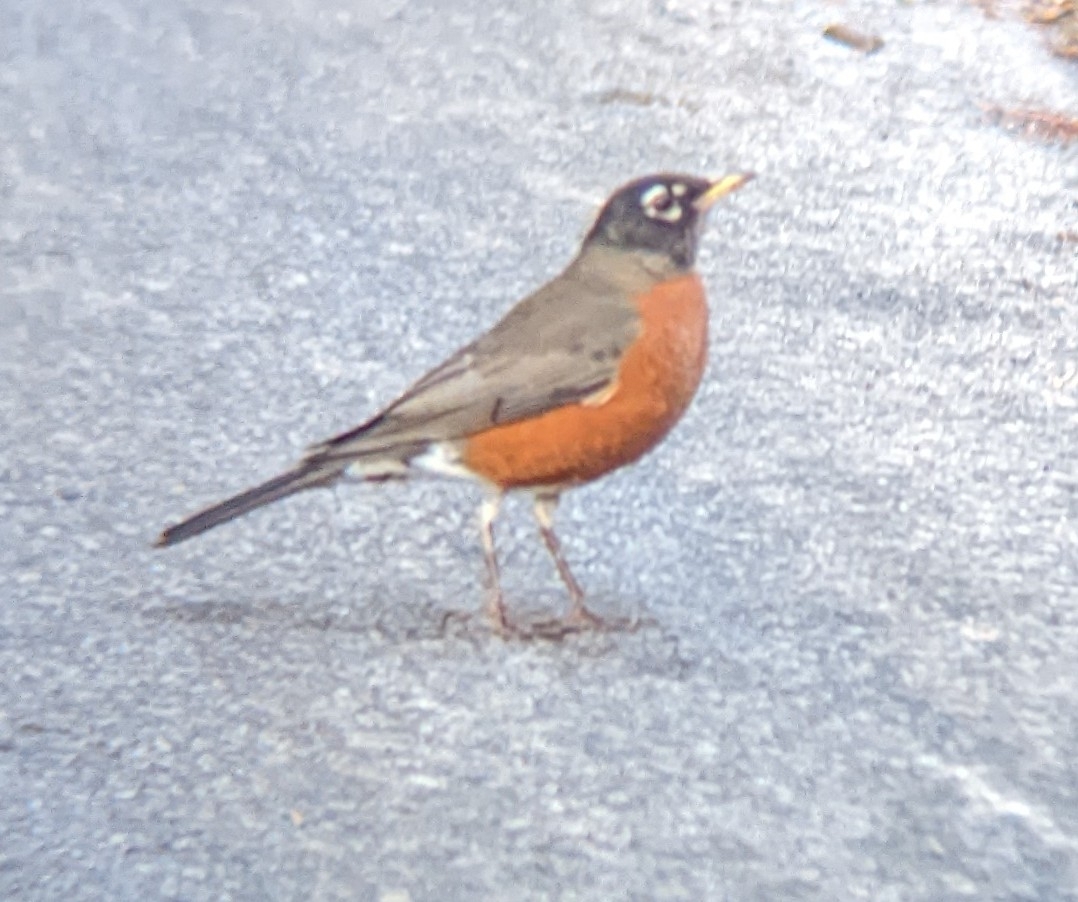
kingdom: Animalia
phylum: Chordata
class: Aves
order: Passeriformes
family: Turdidae
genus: Turdus
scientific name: Turdus migratorius
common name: American robin
